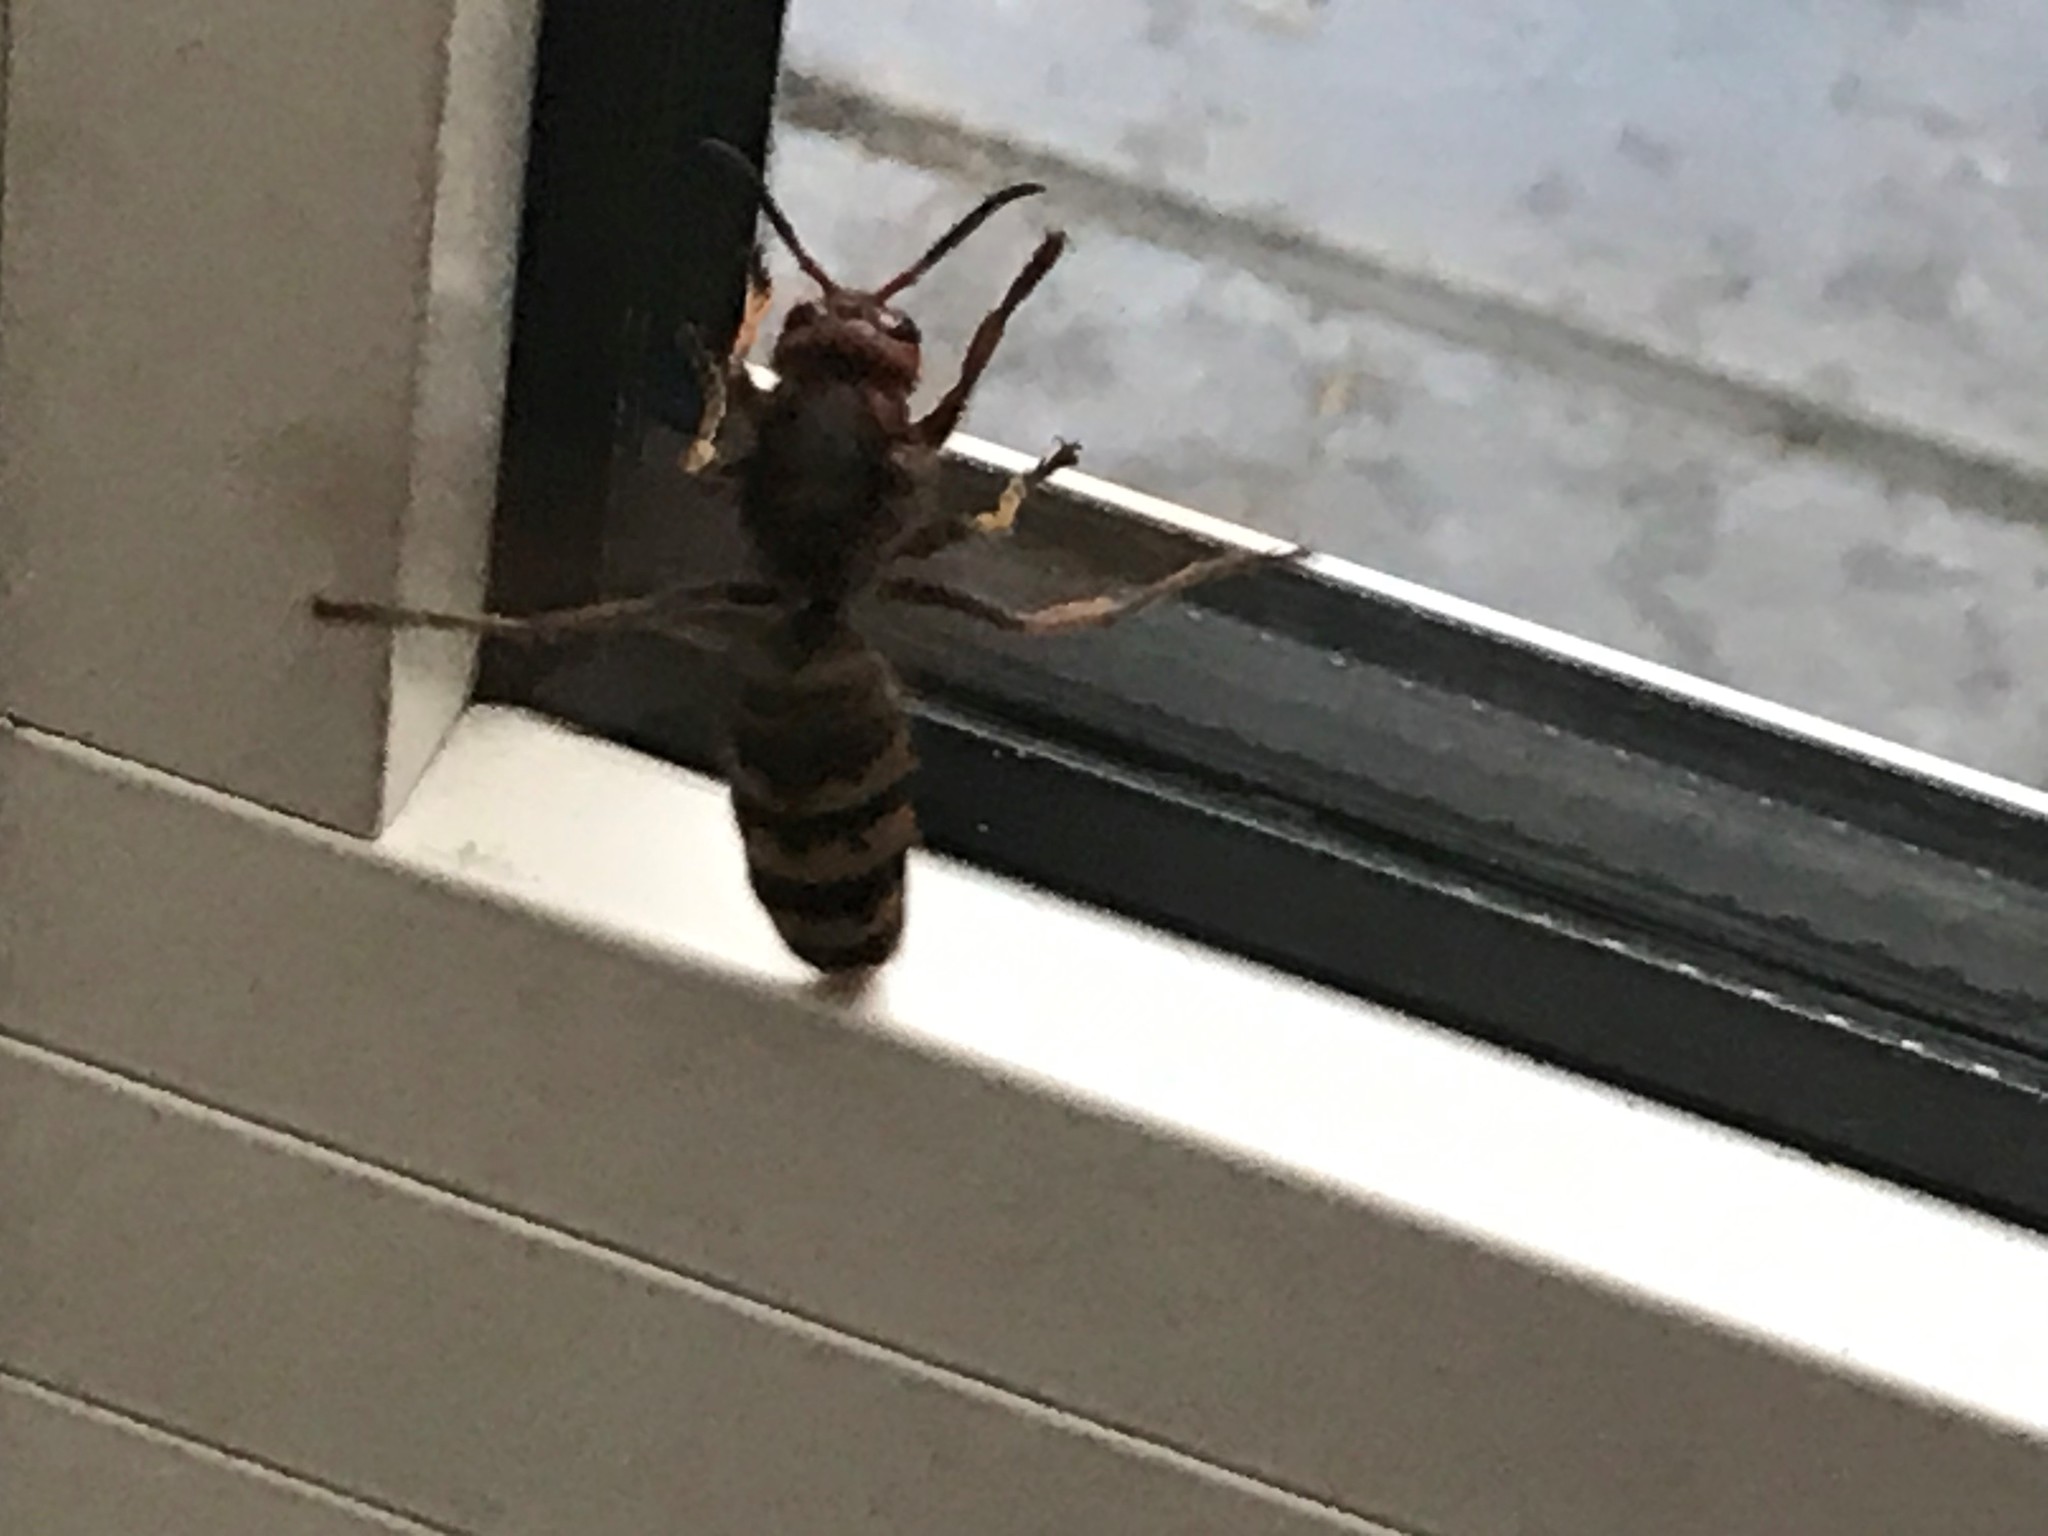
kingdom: Animalia
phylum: Arthropoda
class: Insecta
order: Hymenoptera
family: Vespidae
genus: Vespa
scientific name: Vespa crabro
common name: Hornet
